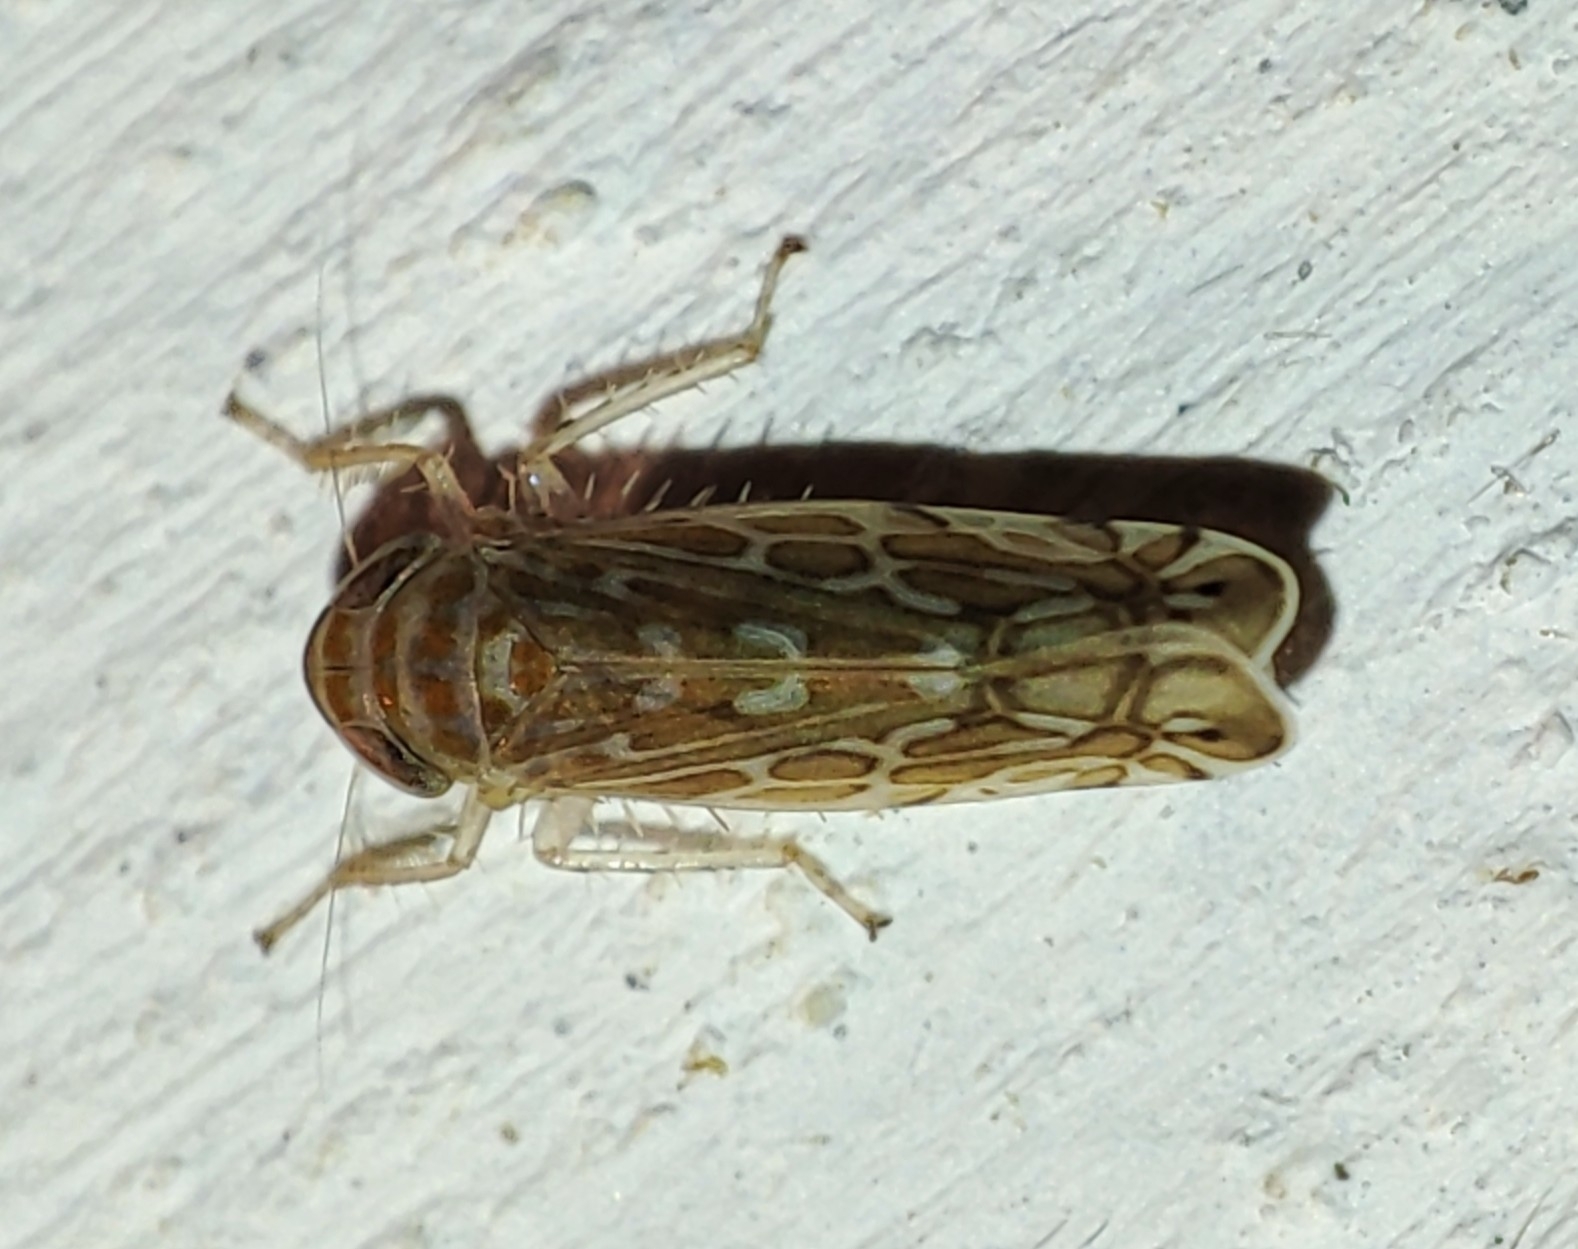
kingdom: Animalia
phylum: Arthropoda
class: Insecta
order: Hemiptera
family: Cicadellidae
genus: Paralimnus
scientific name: Paralimnus phragmitis
